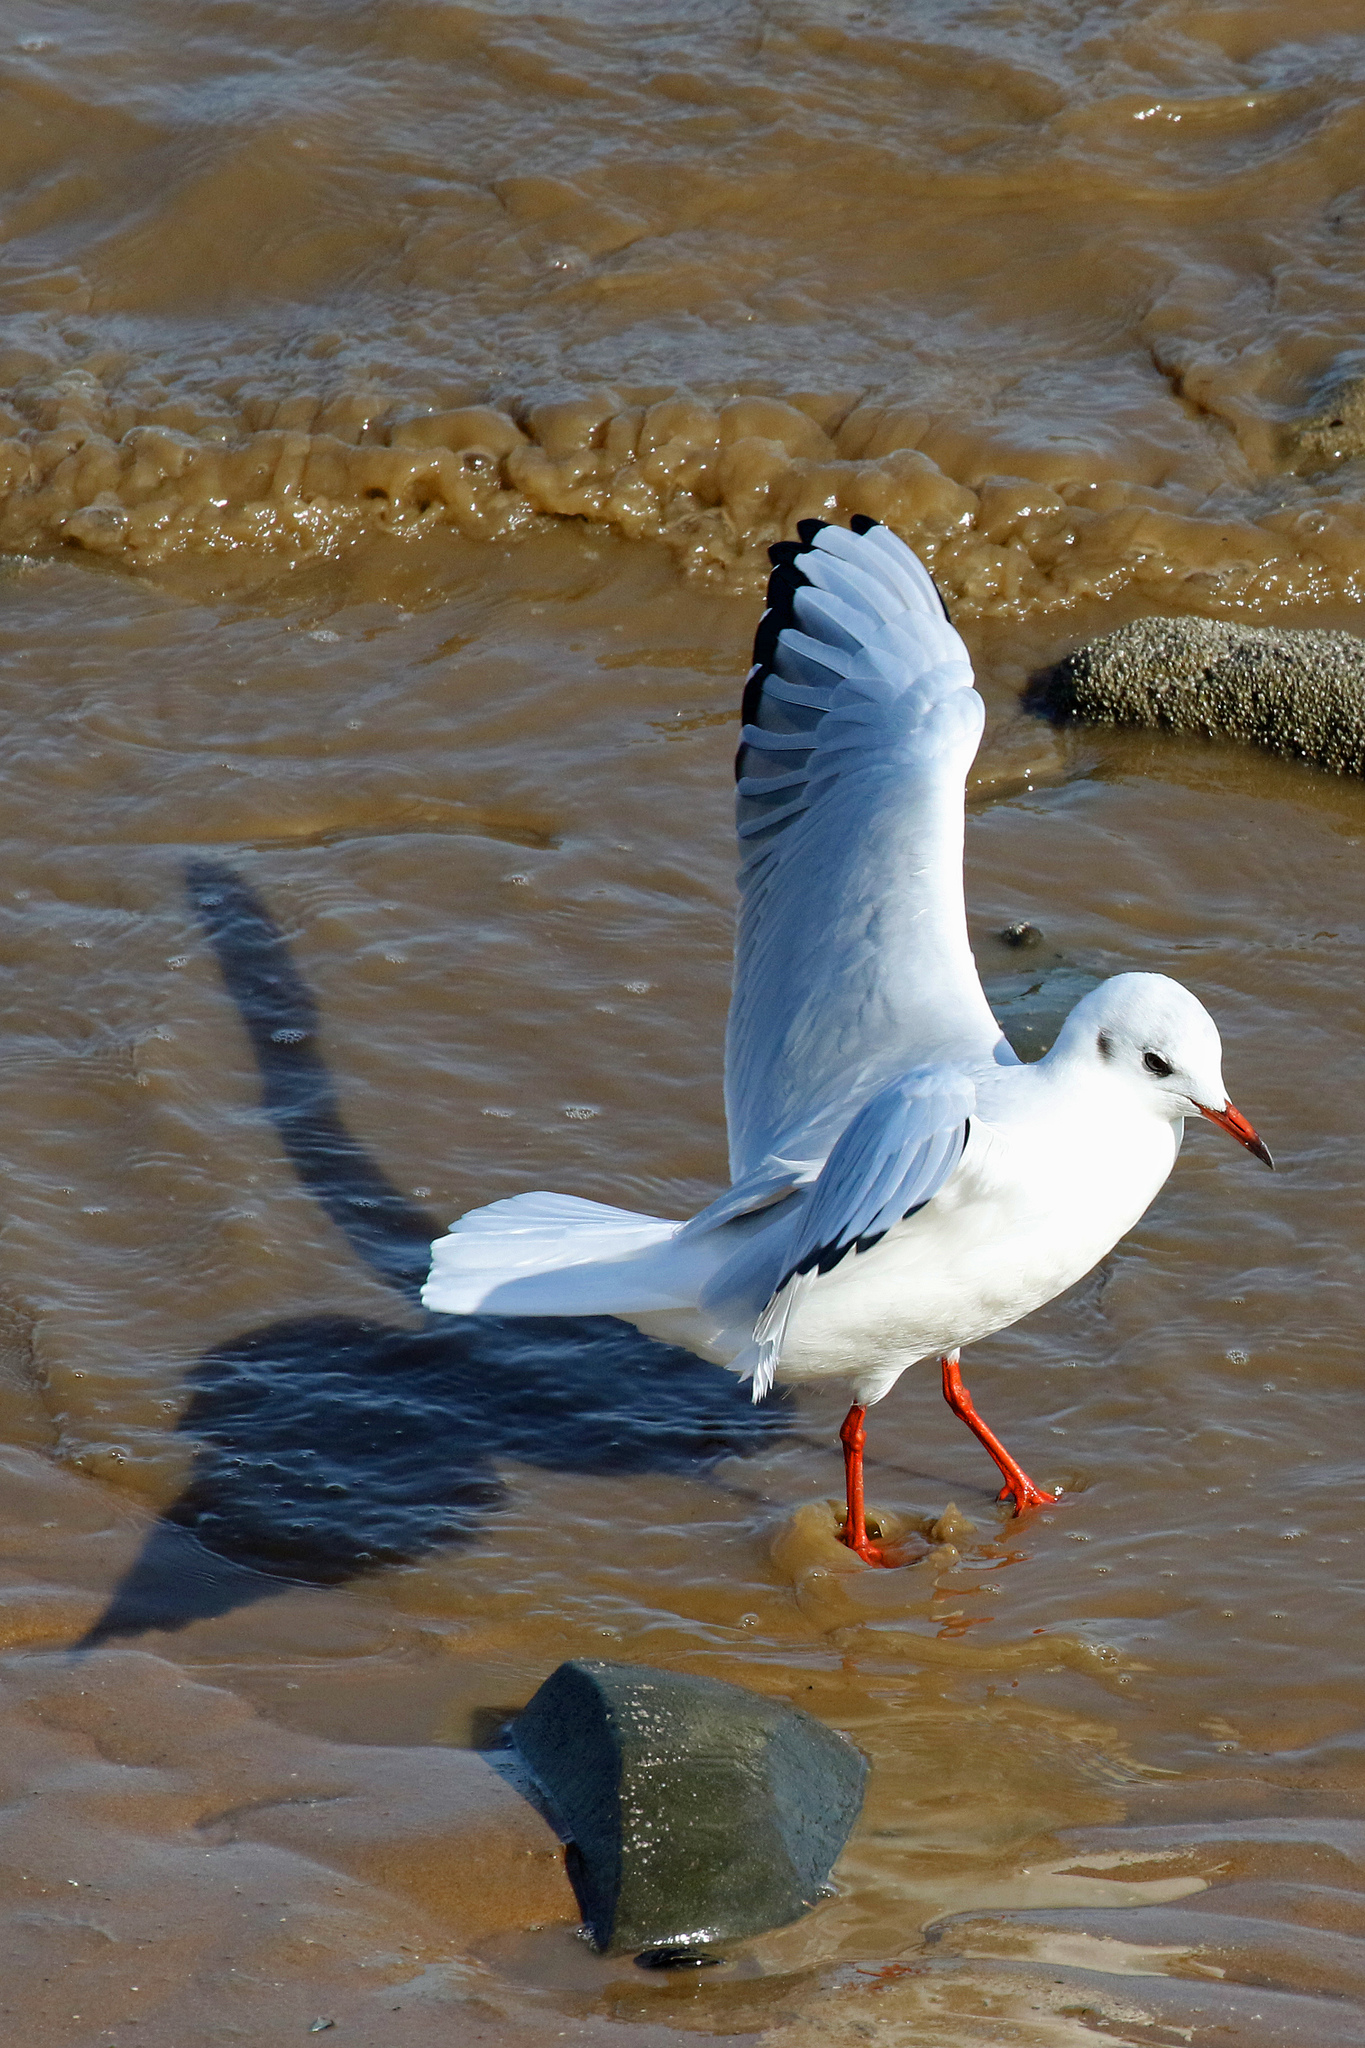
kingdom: Animalia
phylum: Chordata
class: Aves
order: Charadriiformes
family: Laridae
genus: Chroicocephalus
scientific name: Chroicocephalus ridibundus
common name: Black-headed gull
